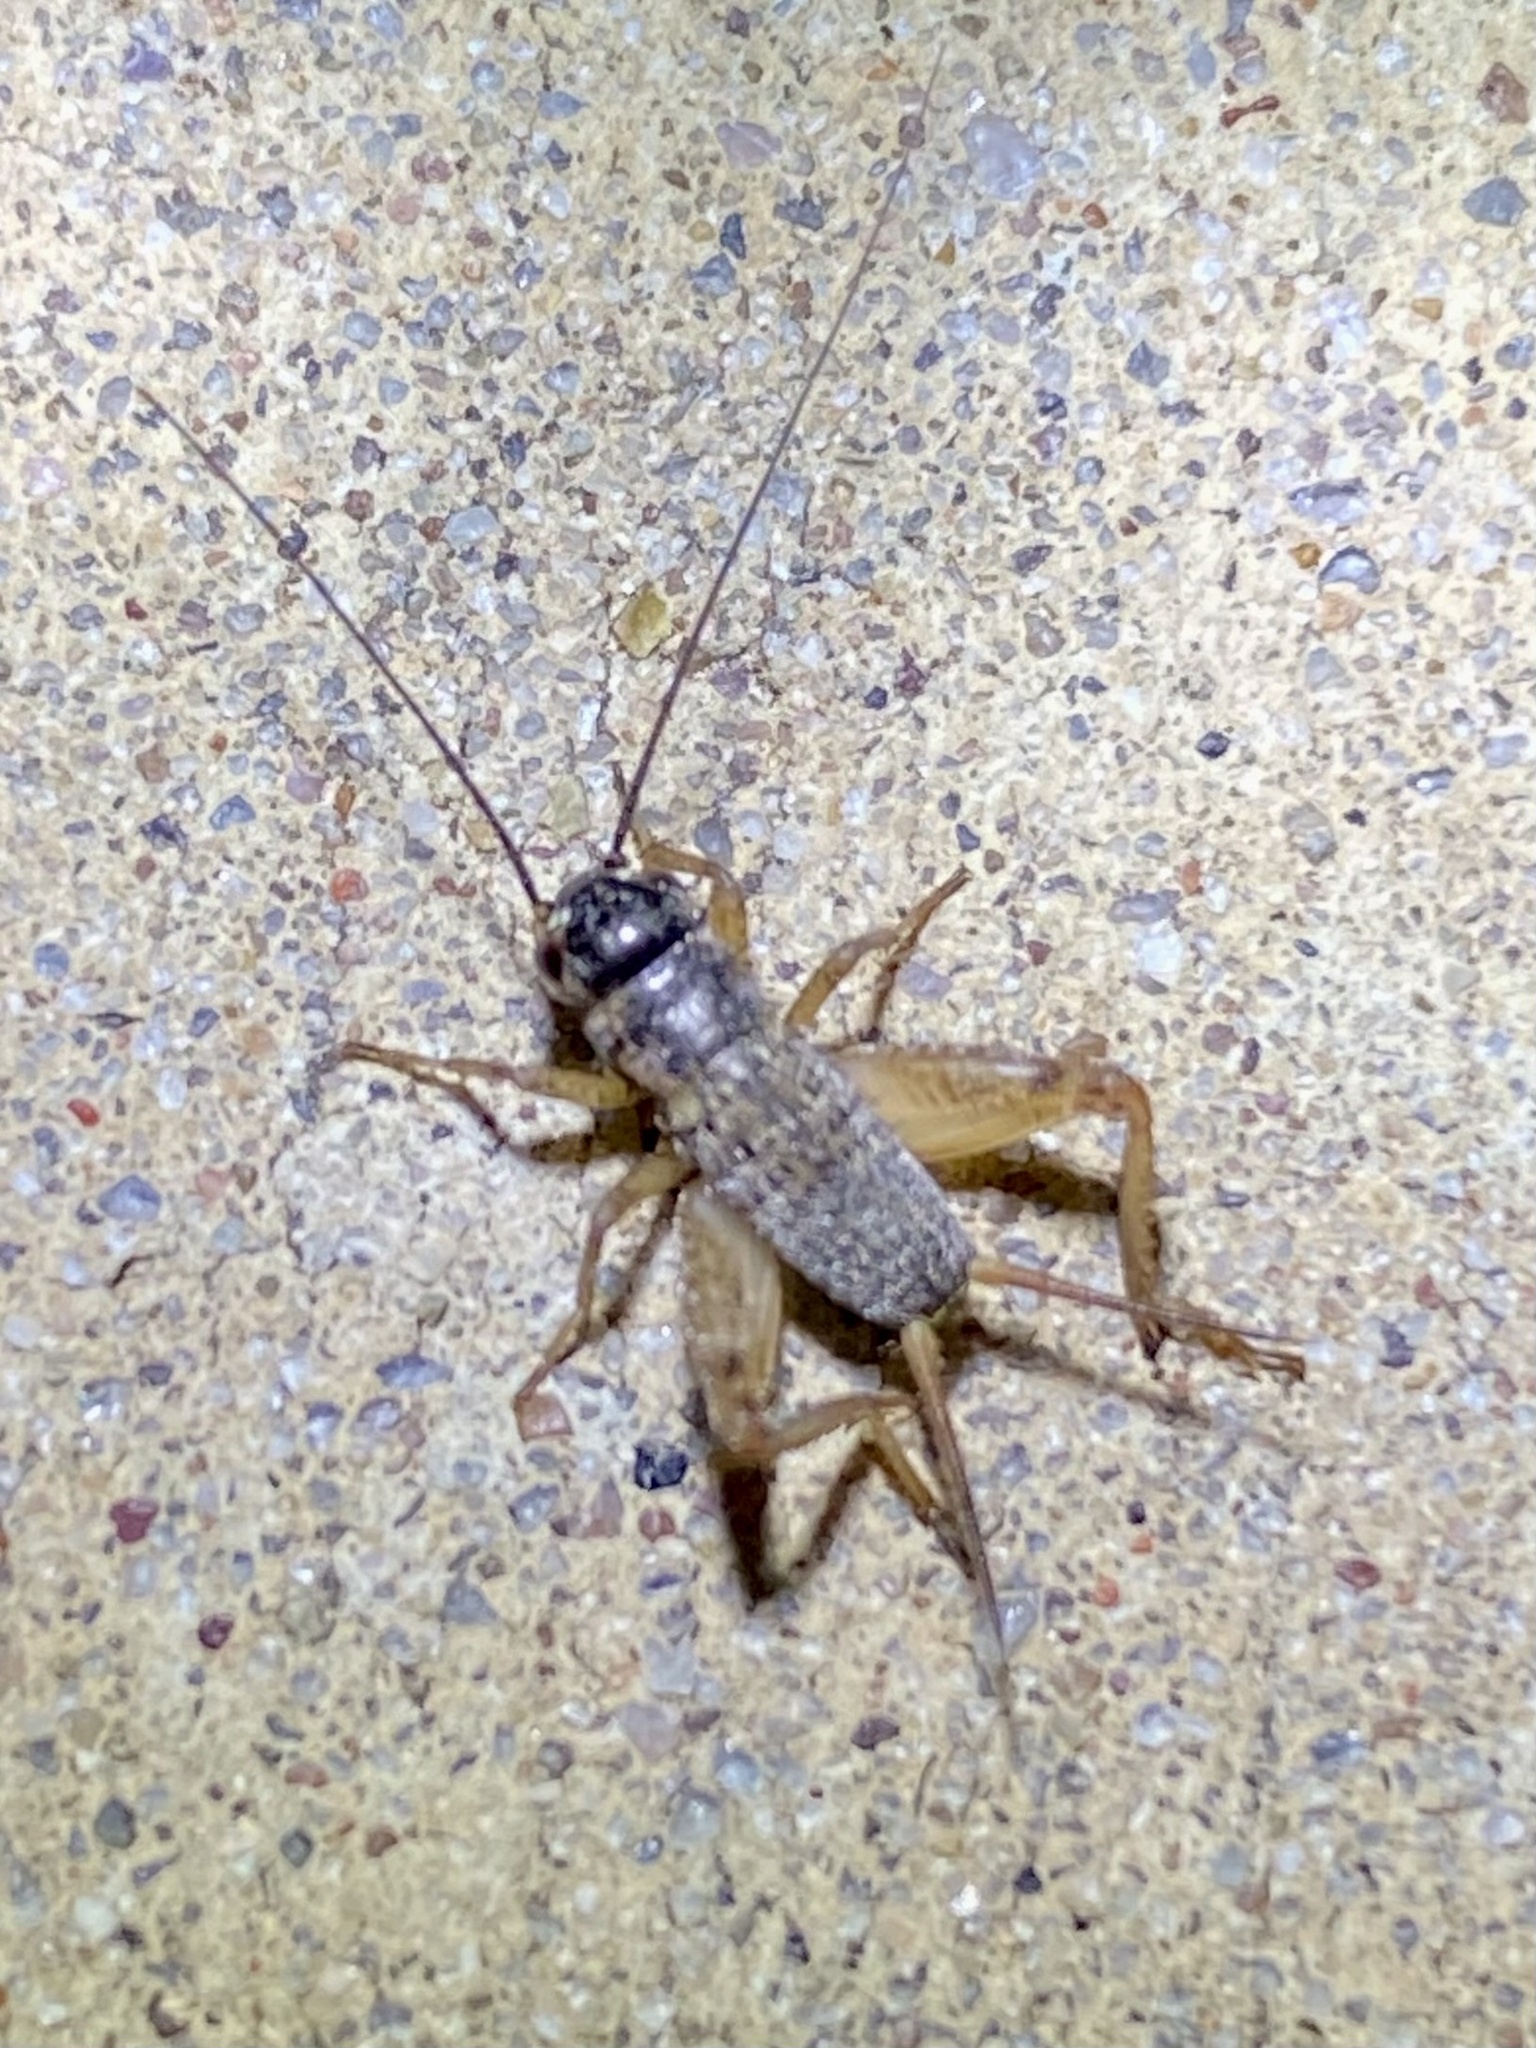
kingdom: Animalia
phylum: Arthropoda
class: Insecta
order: Orthoptera
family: Gryllidae
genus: Gryllus
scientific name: Gryllus
